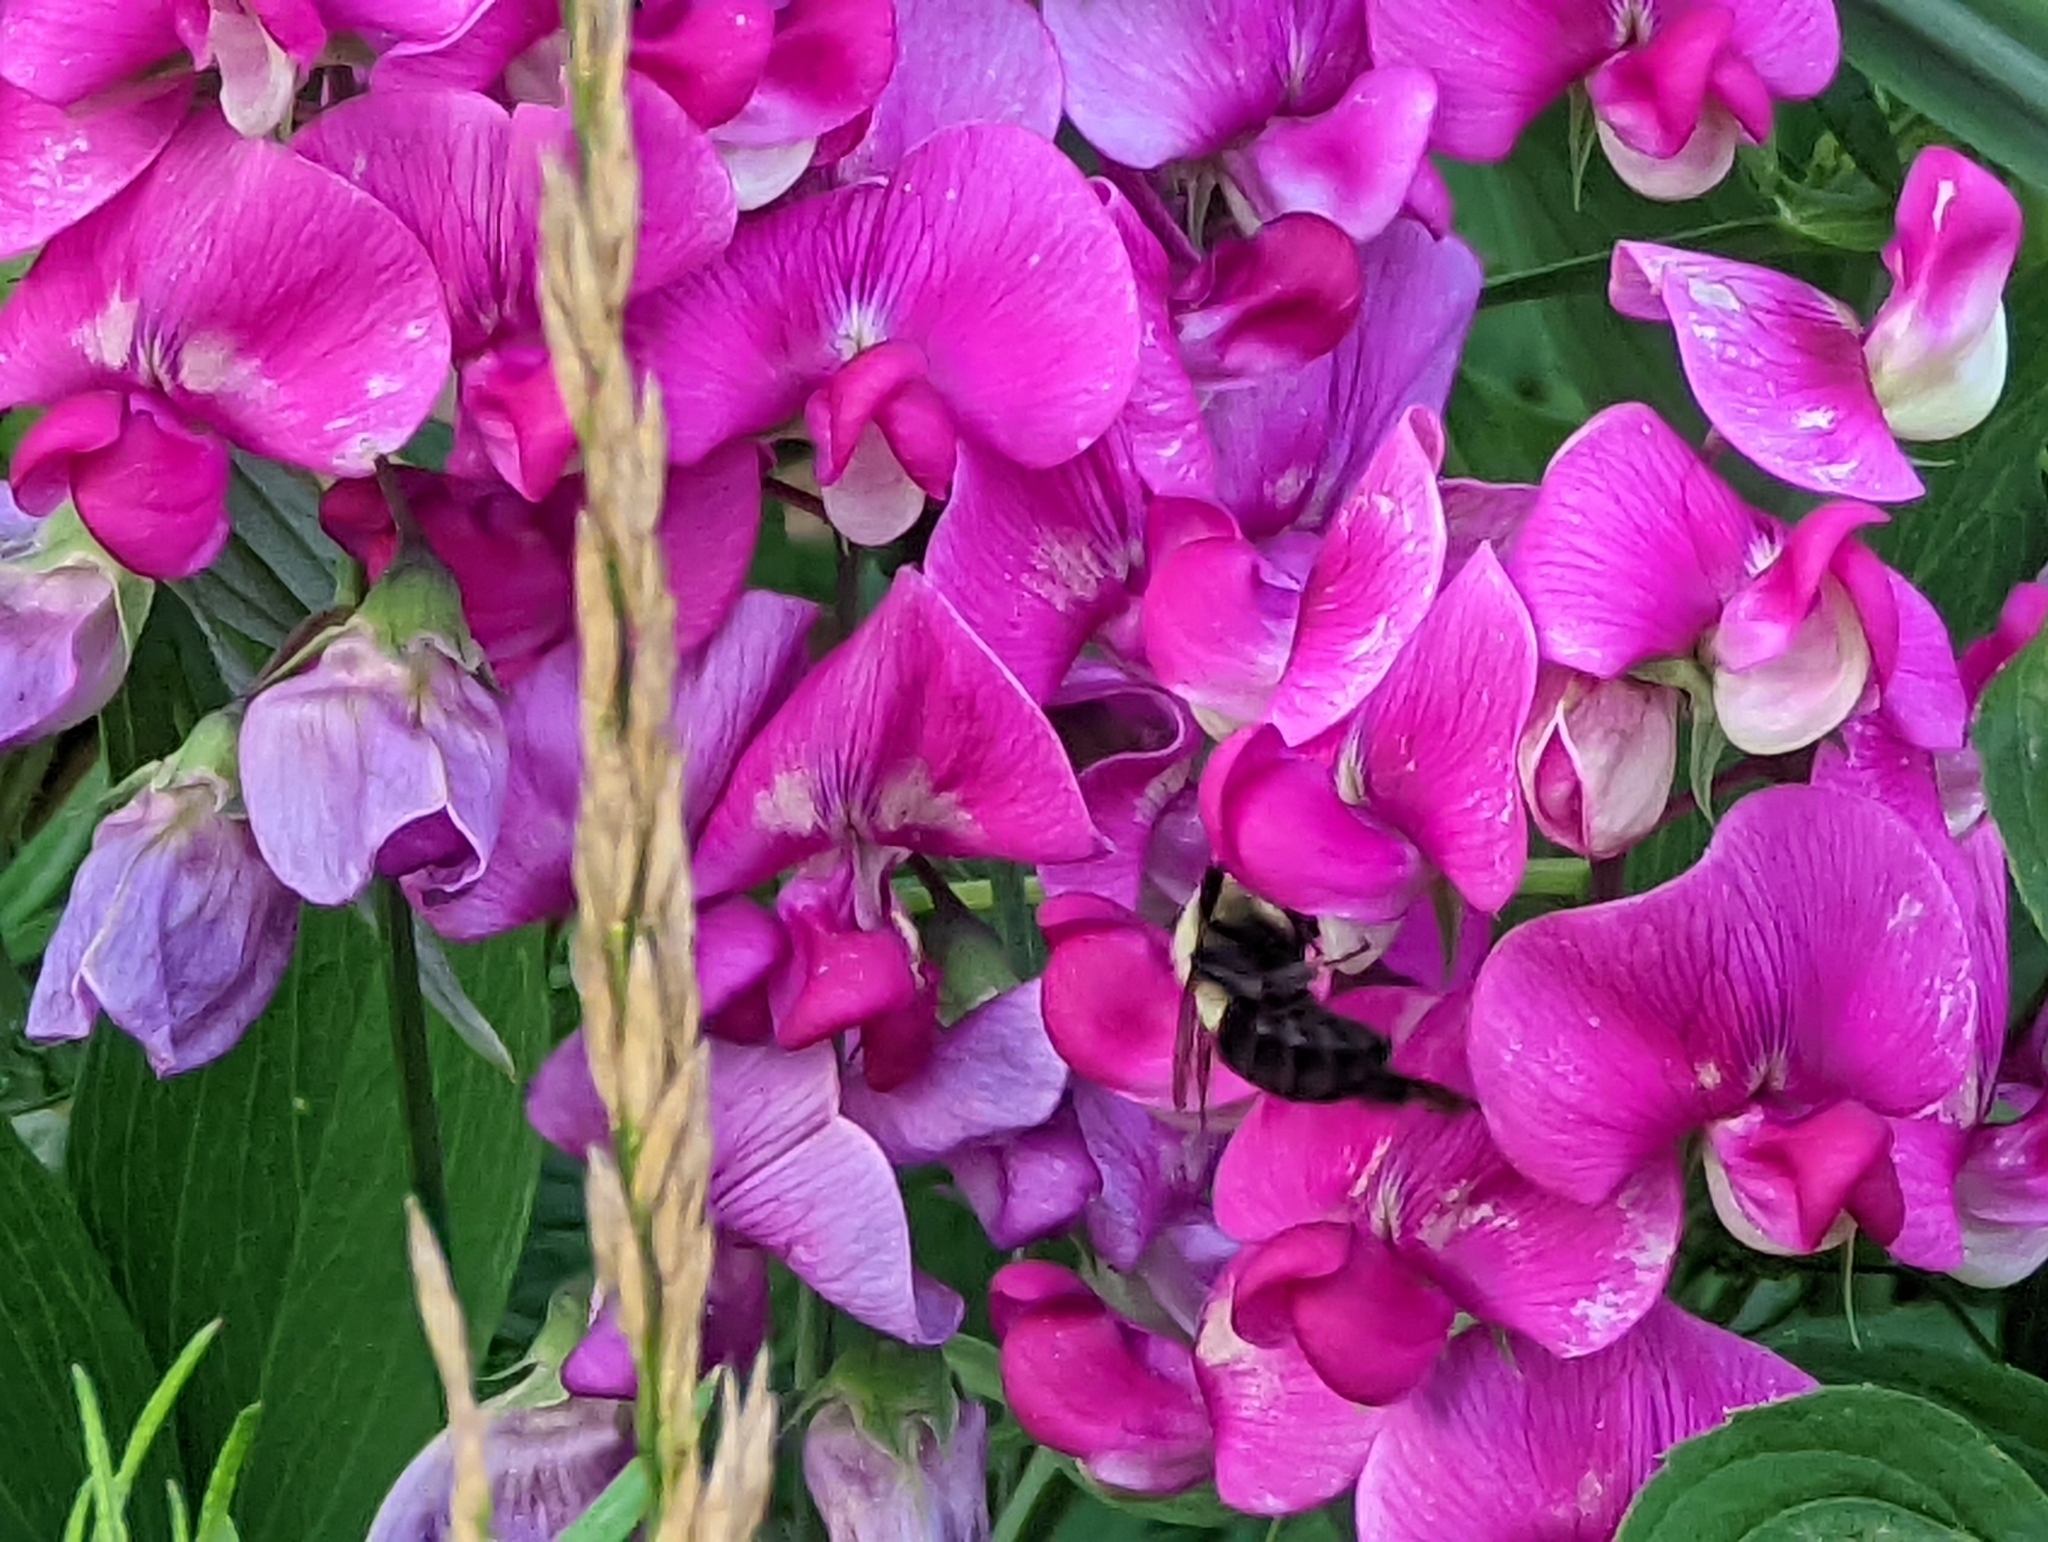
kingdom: Animalia
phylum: Arthropoda
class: Insecta
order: Hymenoptera
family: Apidae
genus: Bombus
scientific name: Bombus impatiens
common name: Common eastern bumble bee
